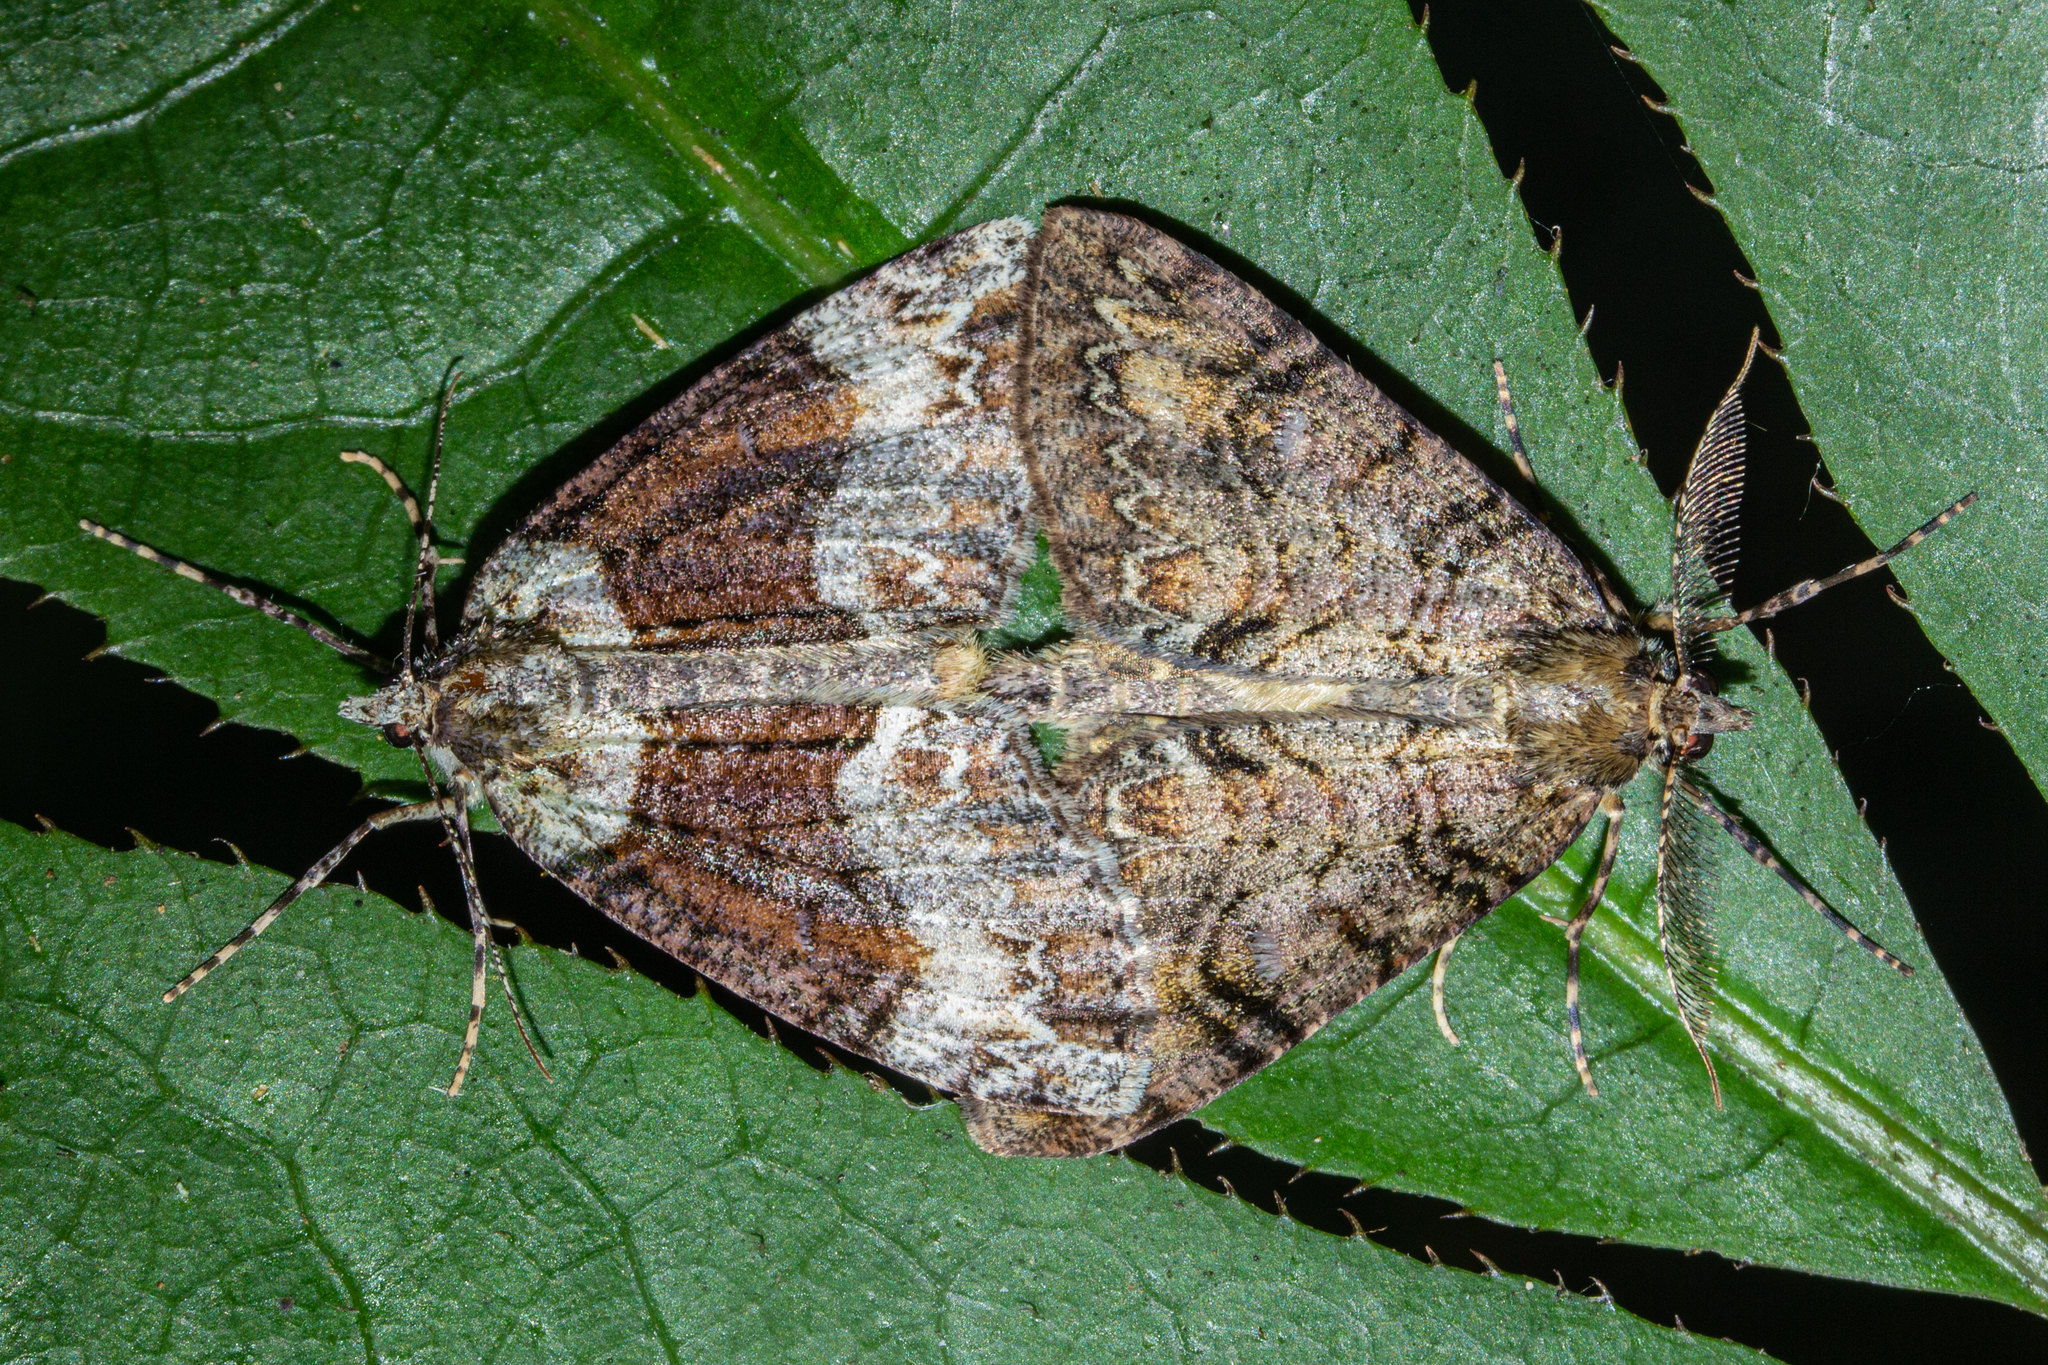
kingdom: Animalia
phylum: Arthropoda
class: Insecta
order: Lepidoptera
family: Geometridae
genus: Pseudocoremia
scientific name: Pseudocoremia suavis
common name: Common forest looper
